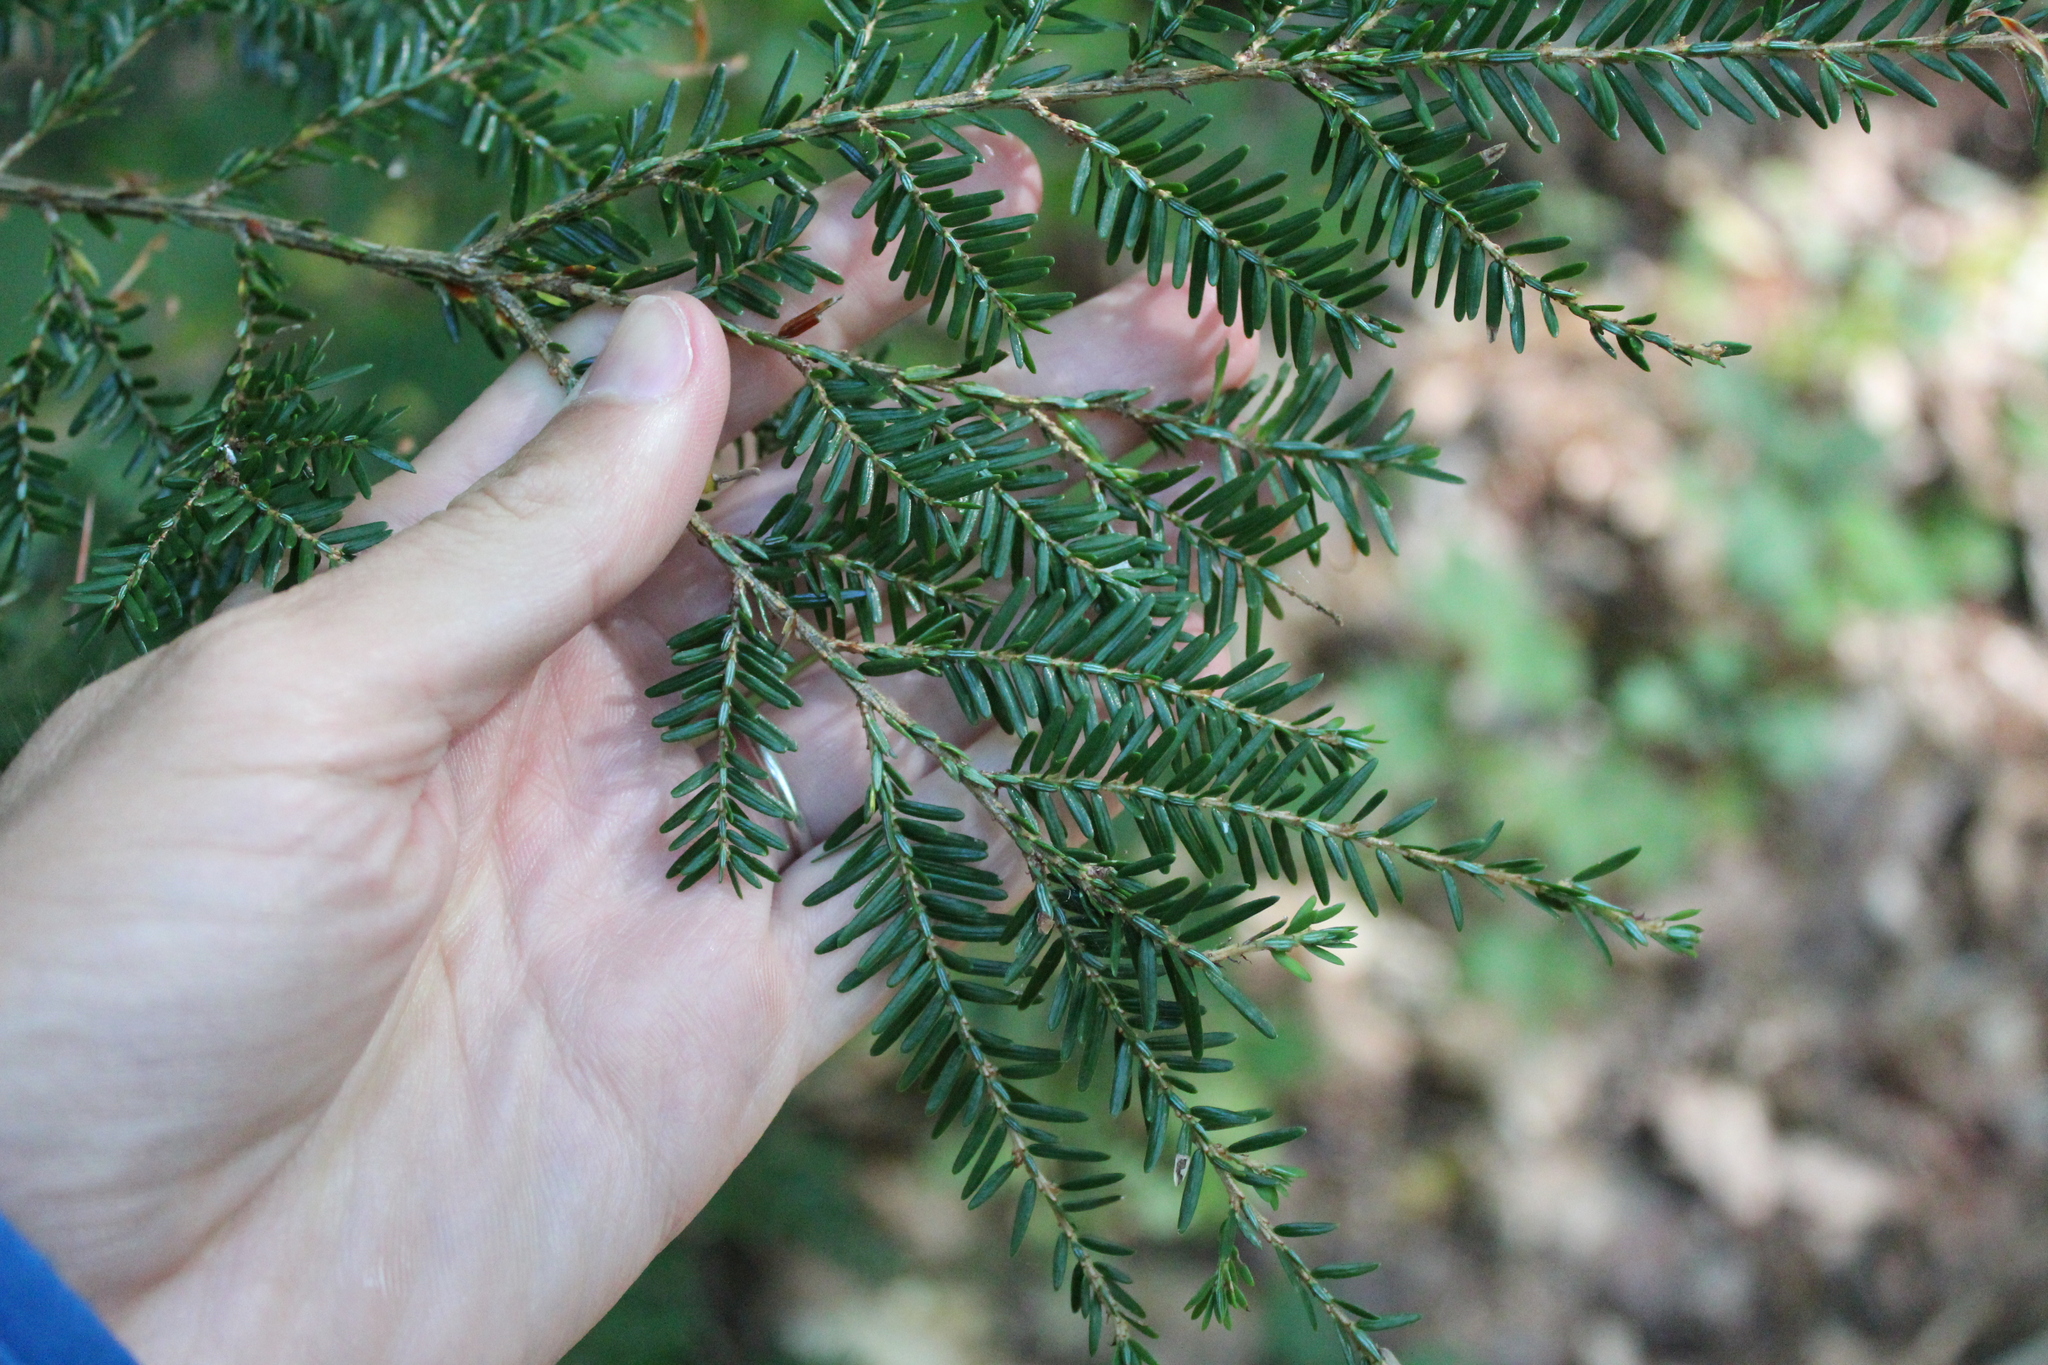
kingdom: Plantae
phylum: Tracheophyta
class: Pinopsida
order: Pinales
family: Pinaceae
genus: Tsuga
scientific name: Tsuga canadensis
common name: Eastern hemlock
